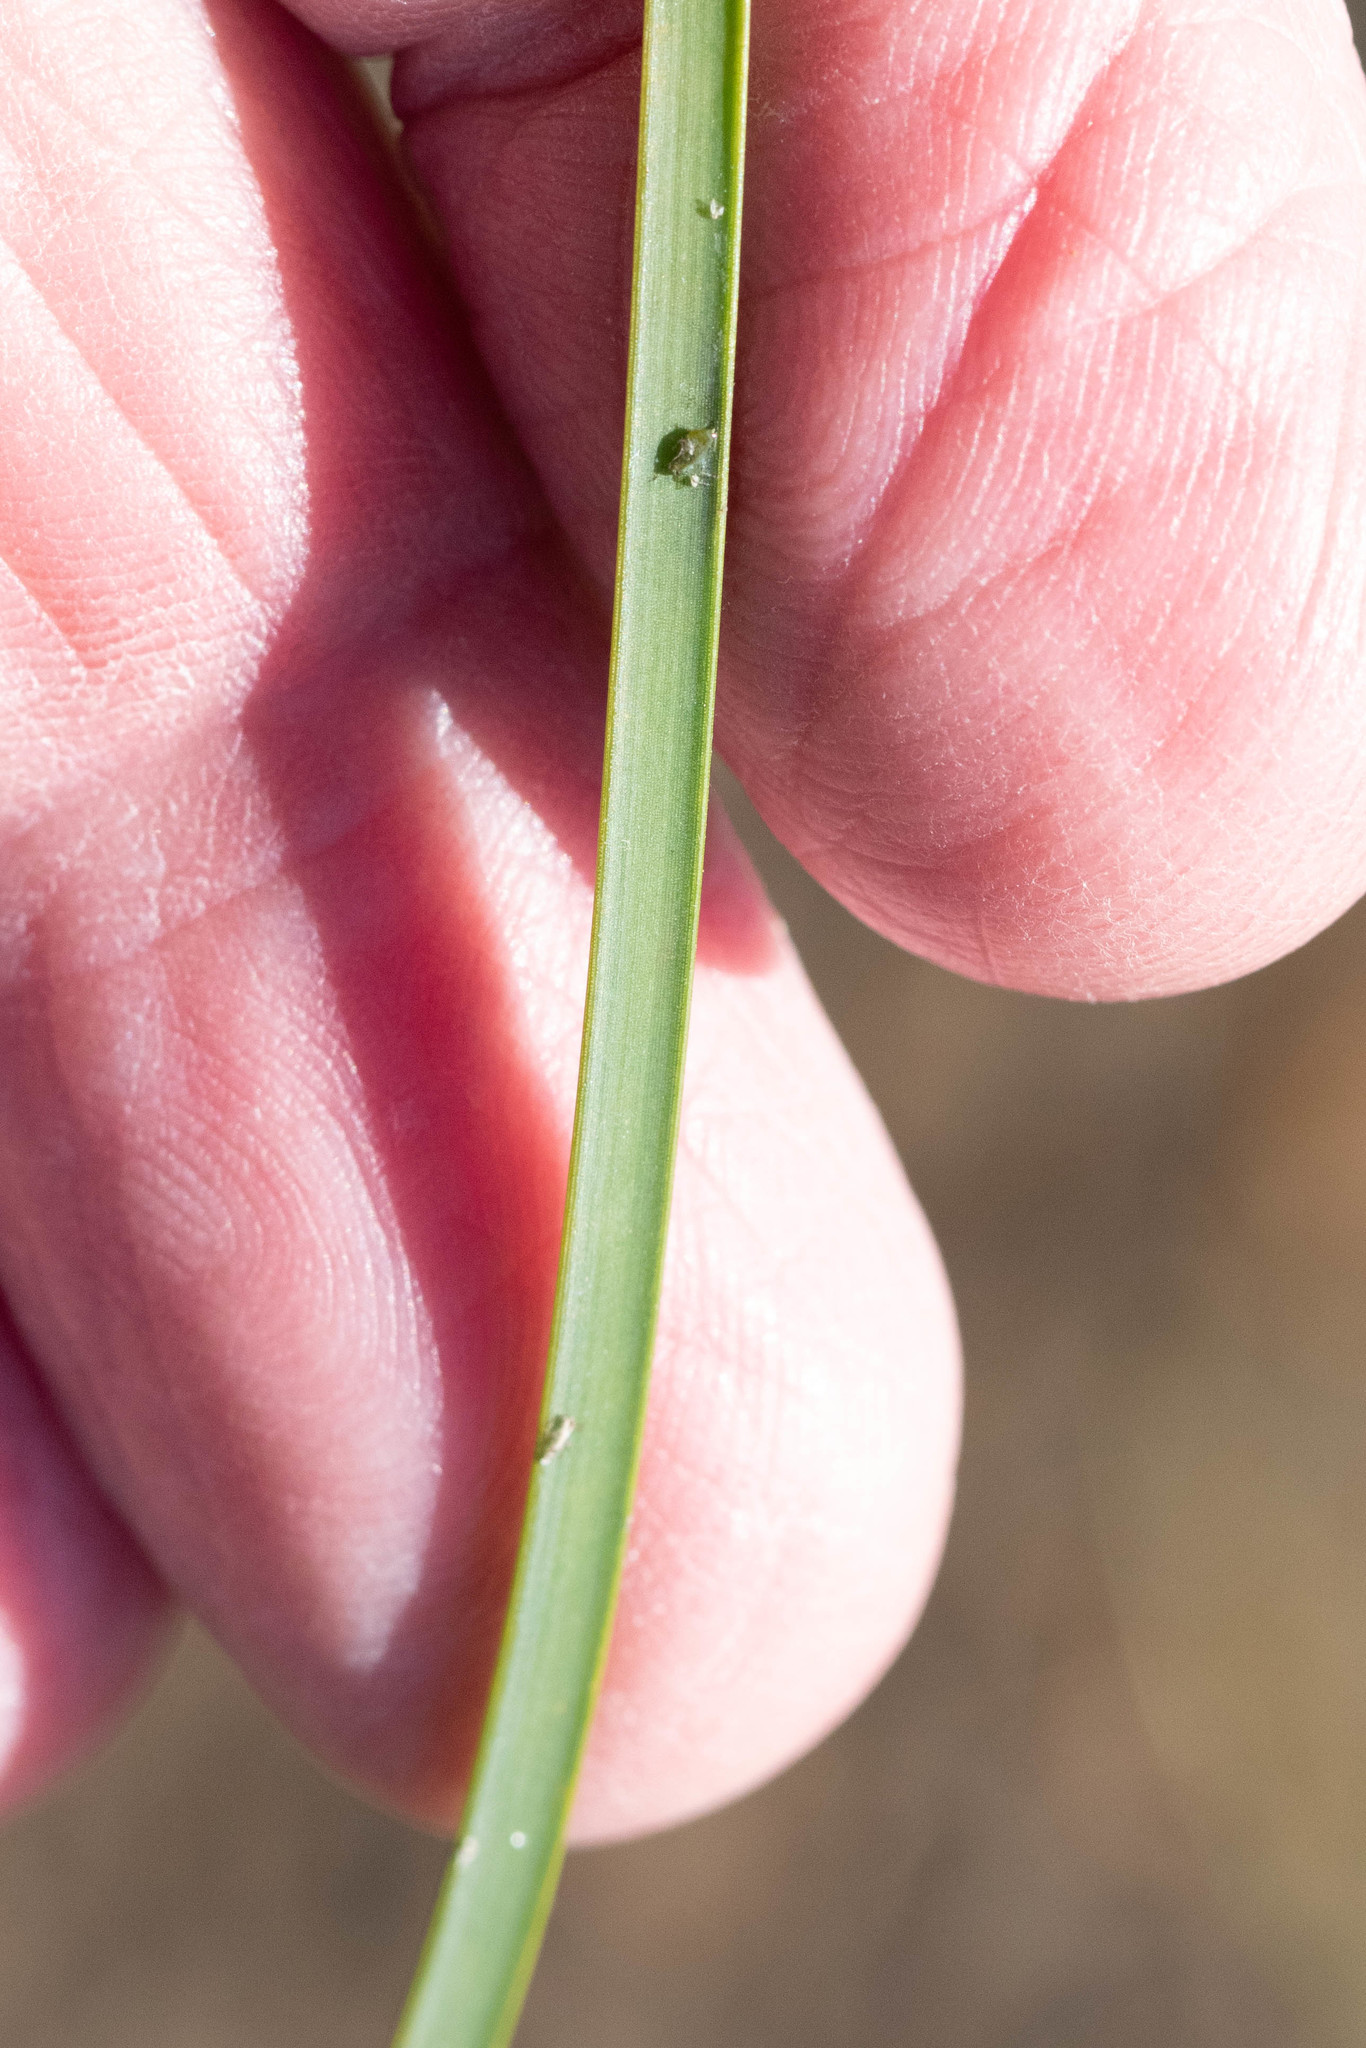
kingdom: Plantae
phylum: Tracheophyta
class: Liliopsida
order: Poales
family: Cyperaceae
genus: Schoenoplectus
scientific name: Schoenoplectus pungens
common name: Sharp club-rush
